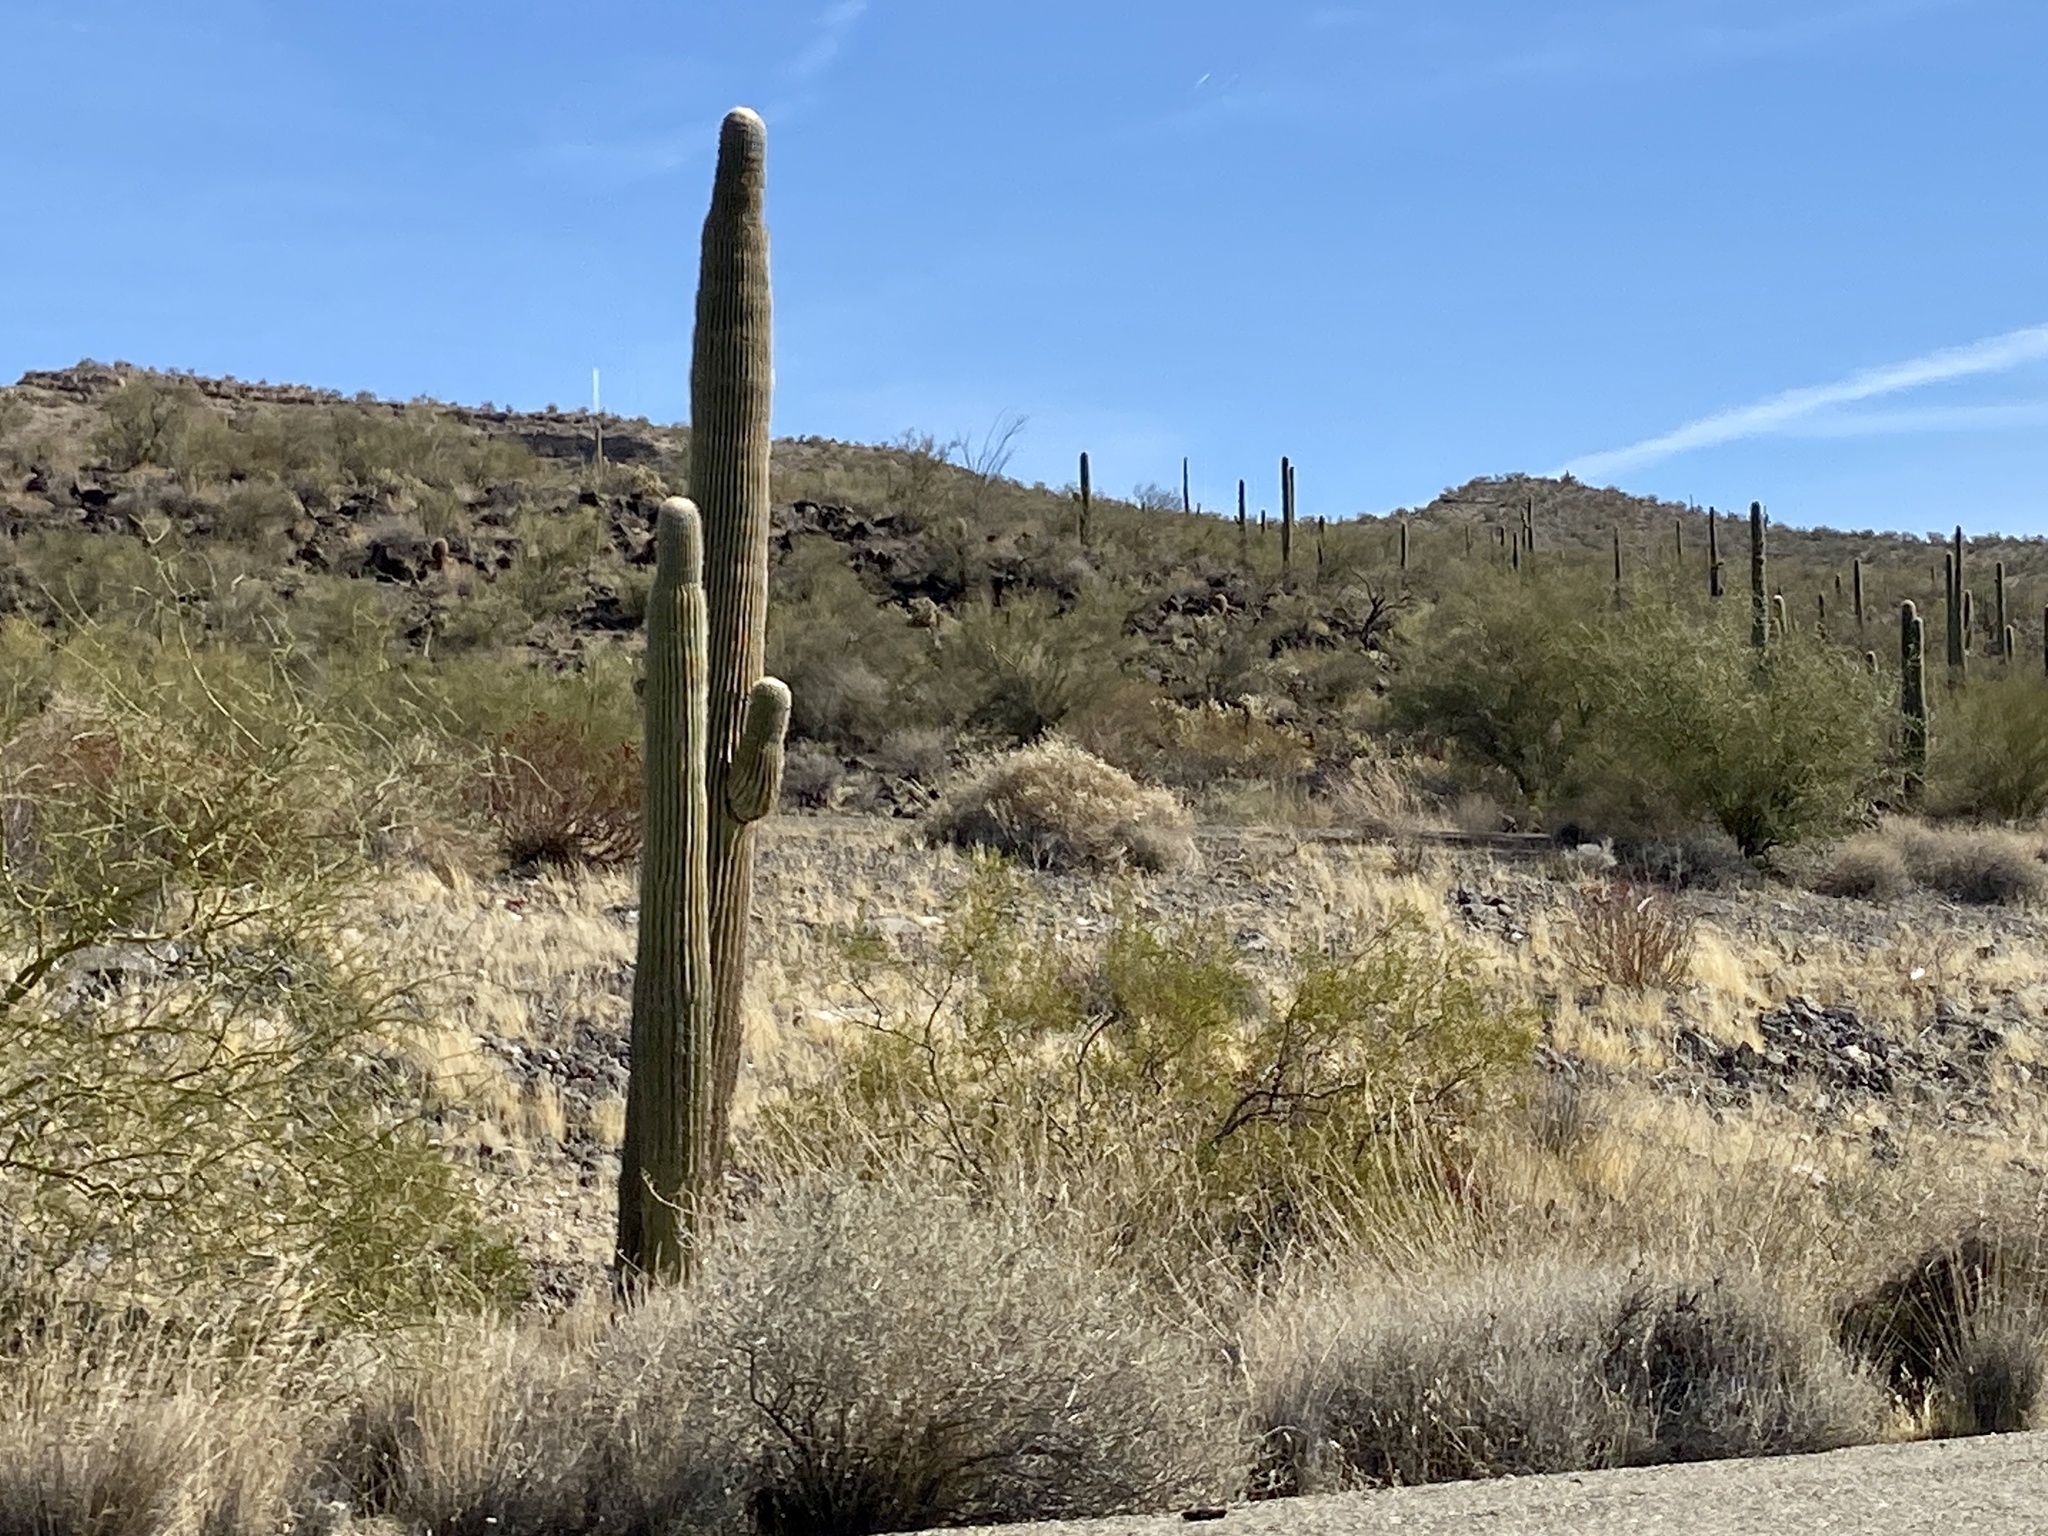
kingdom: Plantae
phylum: Tracheophyta
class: Magnoliopsida
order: Caryophyllales
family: Cactaceae
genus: Carnegiea
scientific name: Carnegiea gigantea
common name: Saguaro
